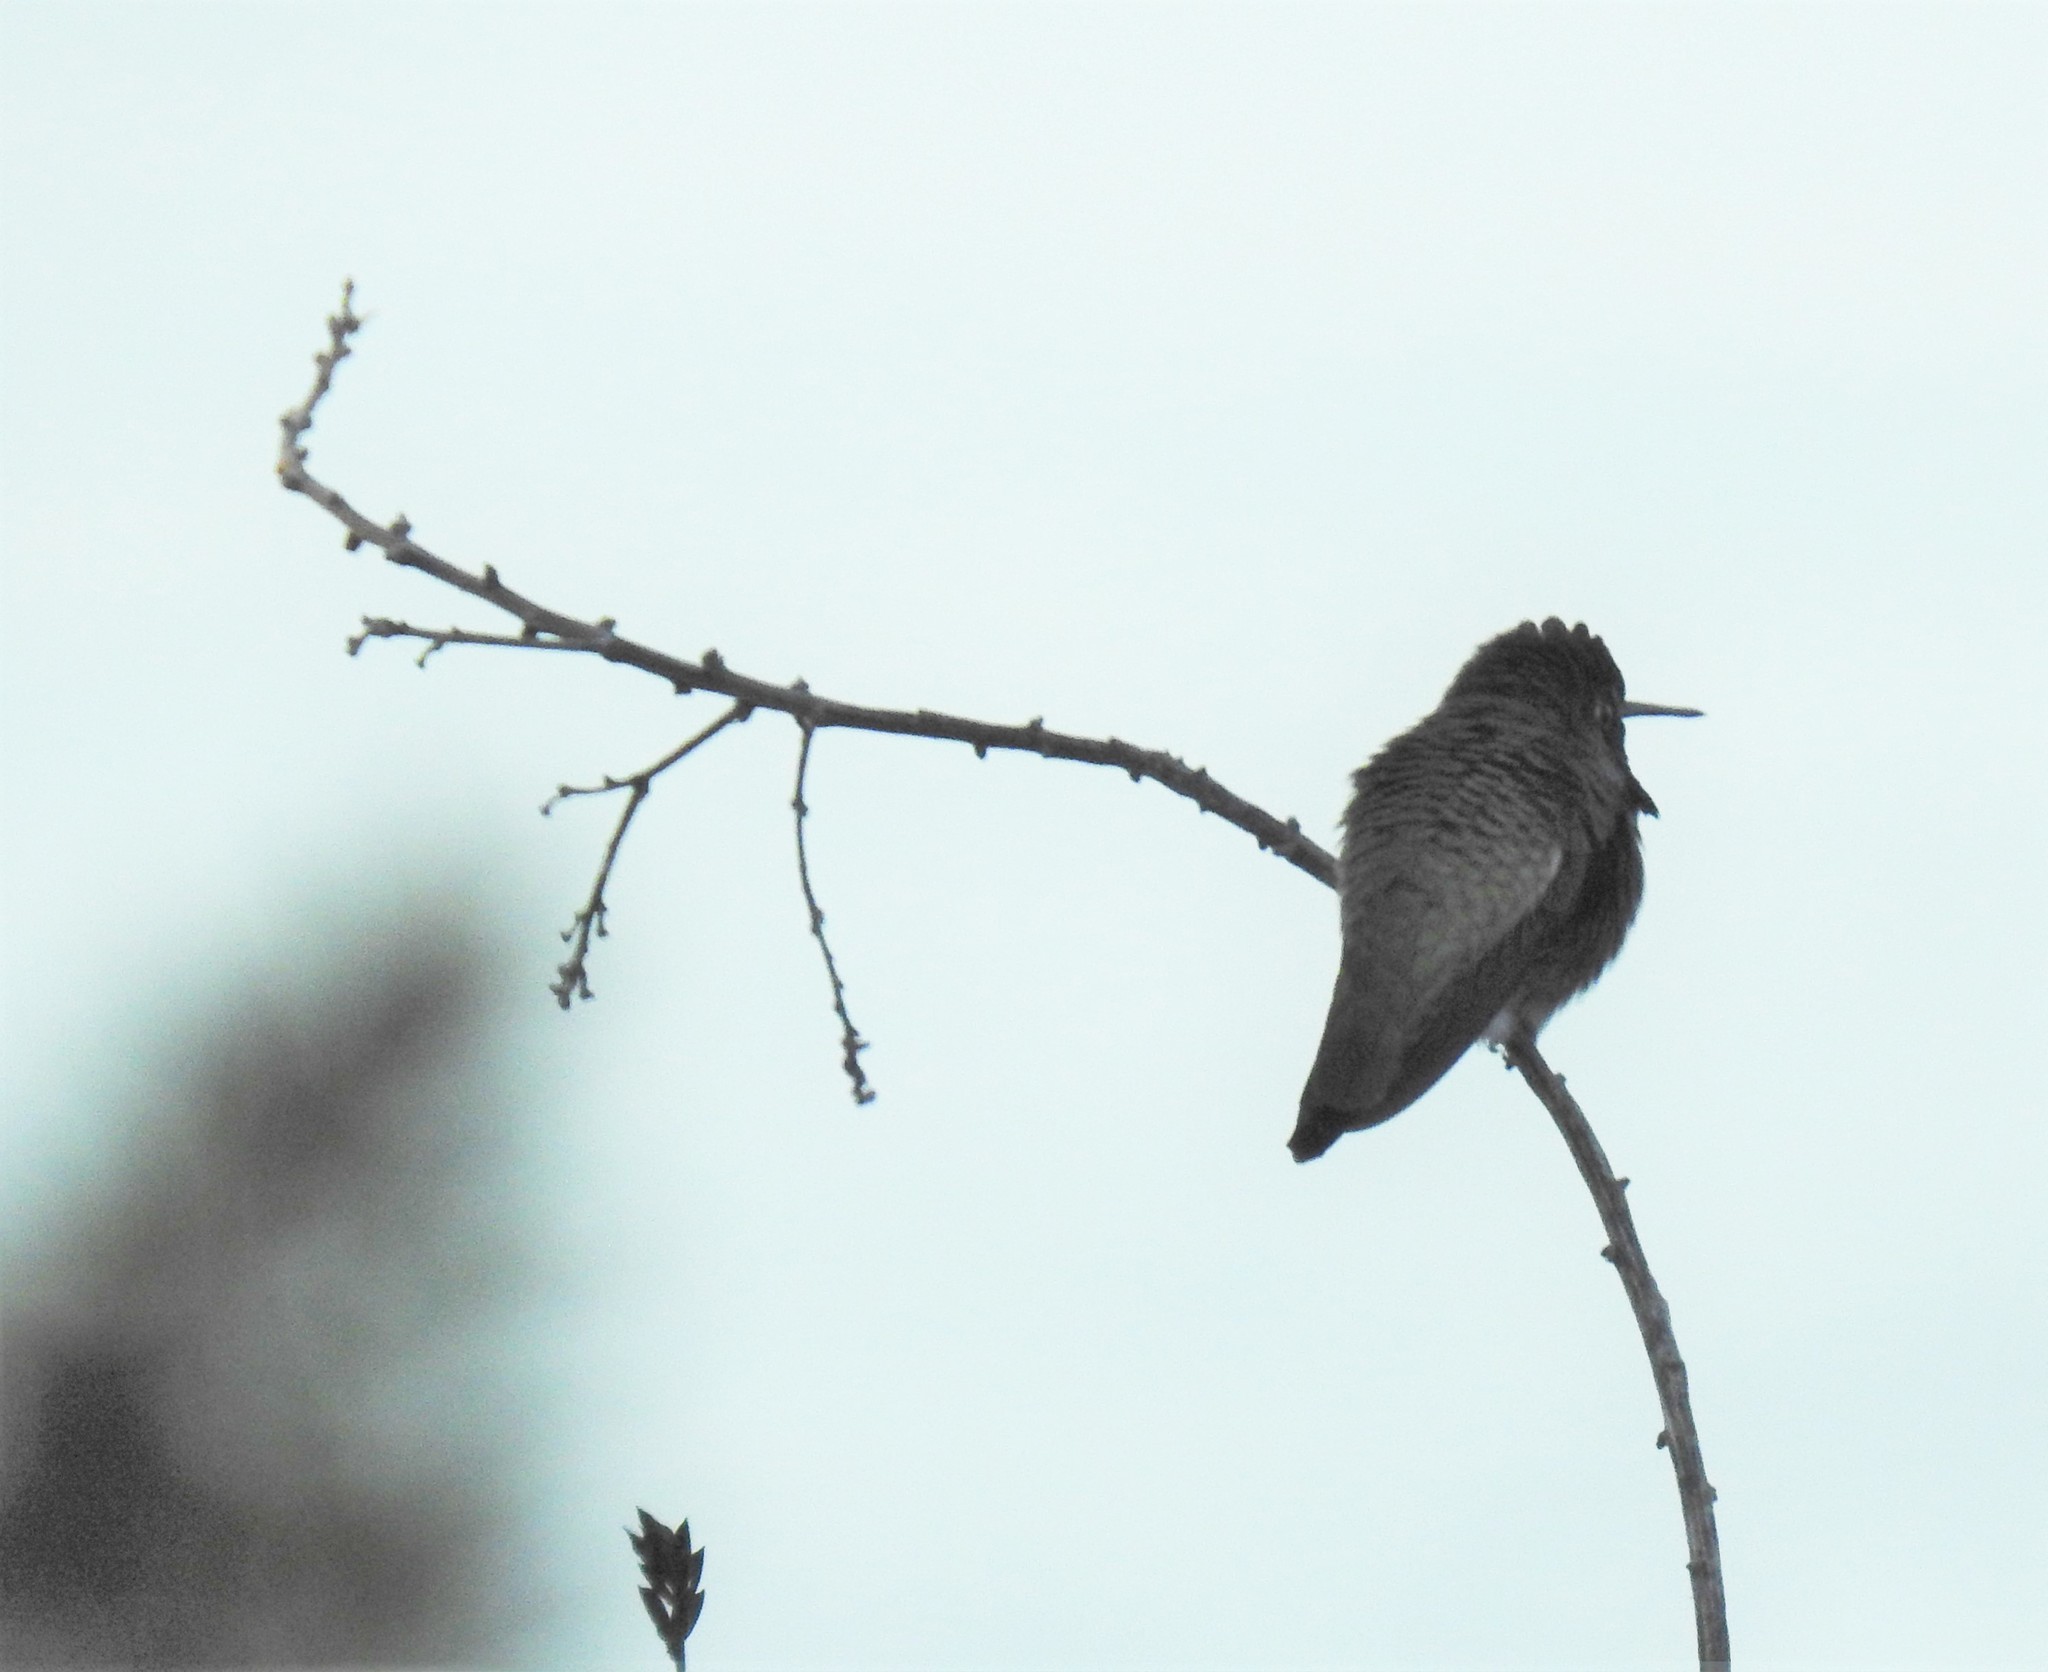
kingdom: Animalia
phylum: Chordata
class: Aves
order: Apodiformes
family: Trochilidae
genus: Calypte
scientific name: Calypte anna
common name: Anna's hummingbird
